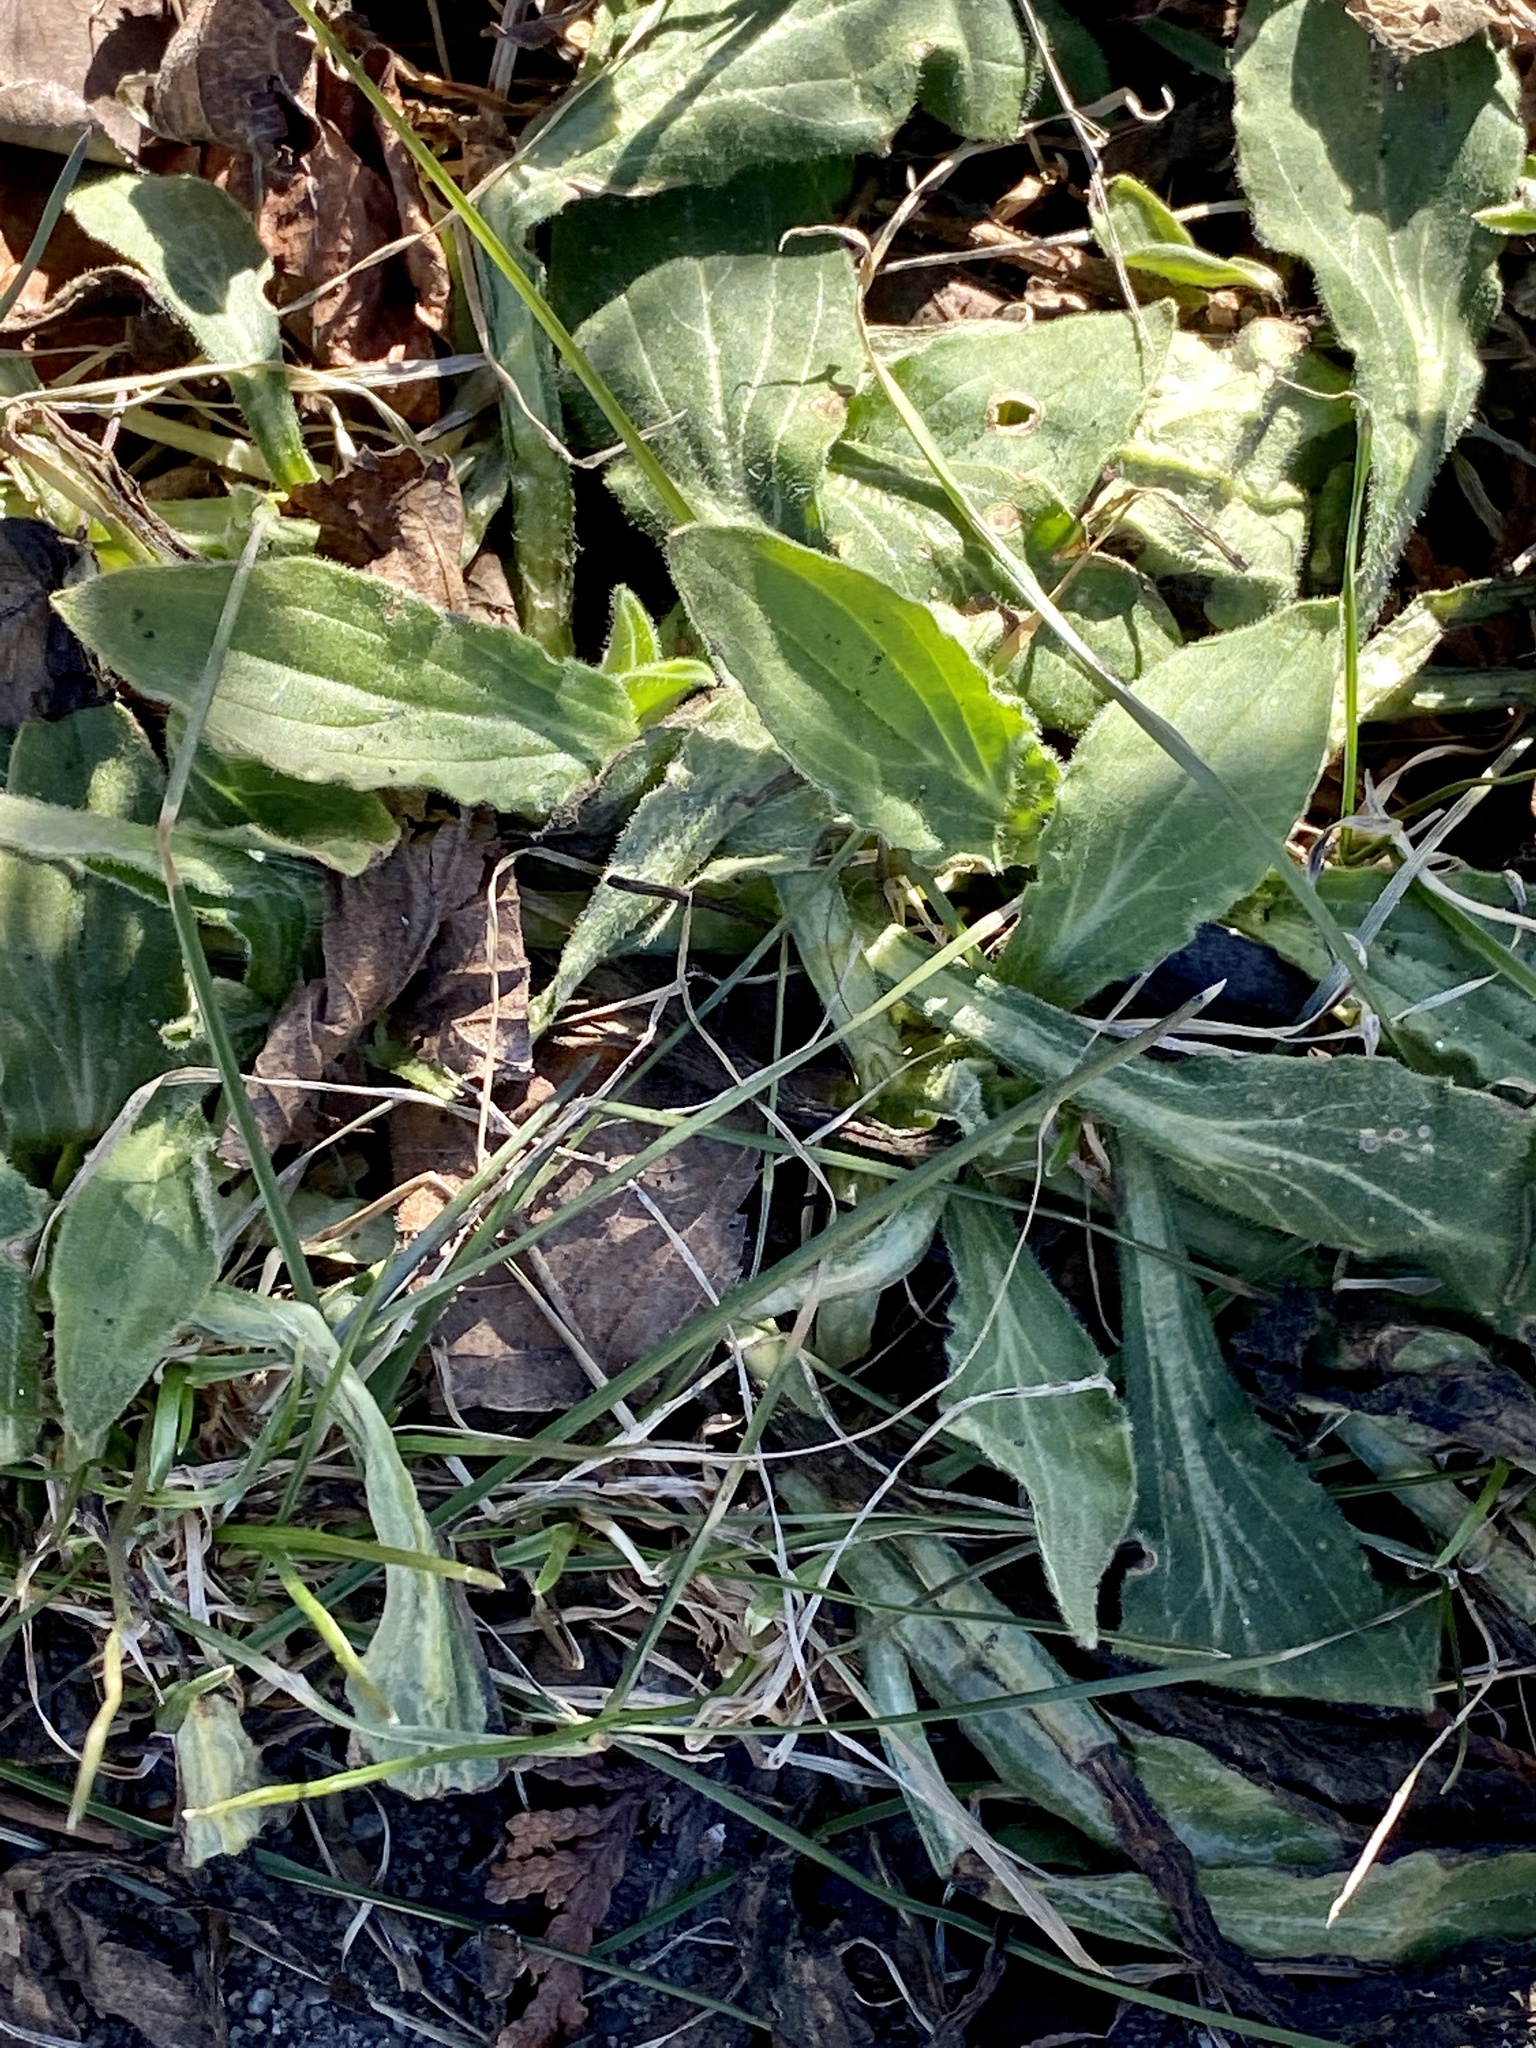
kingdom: Plantae
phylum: Tracheophyta
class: Magnoliopsida
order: Caryophyllales
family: Caryophyllaceae
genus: Silene
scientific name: Silene latifolia
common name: White campion
